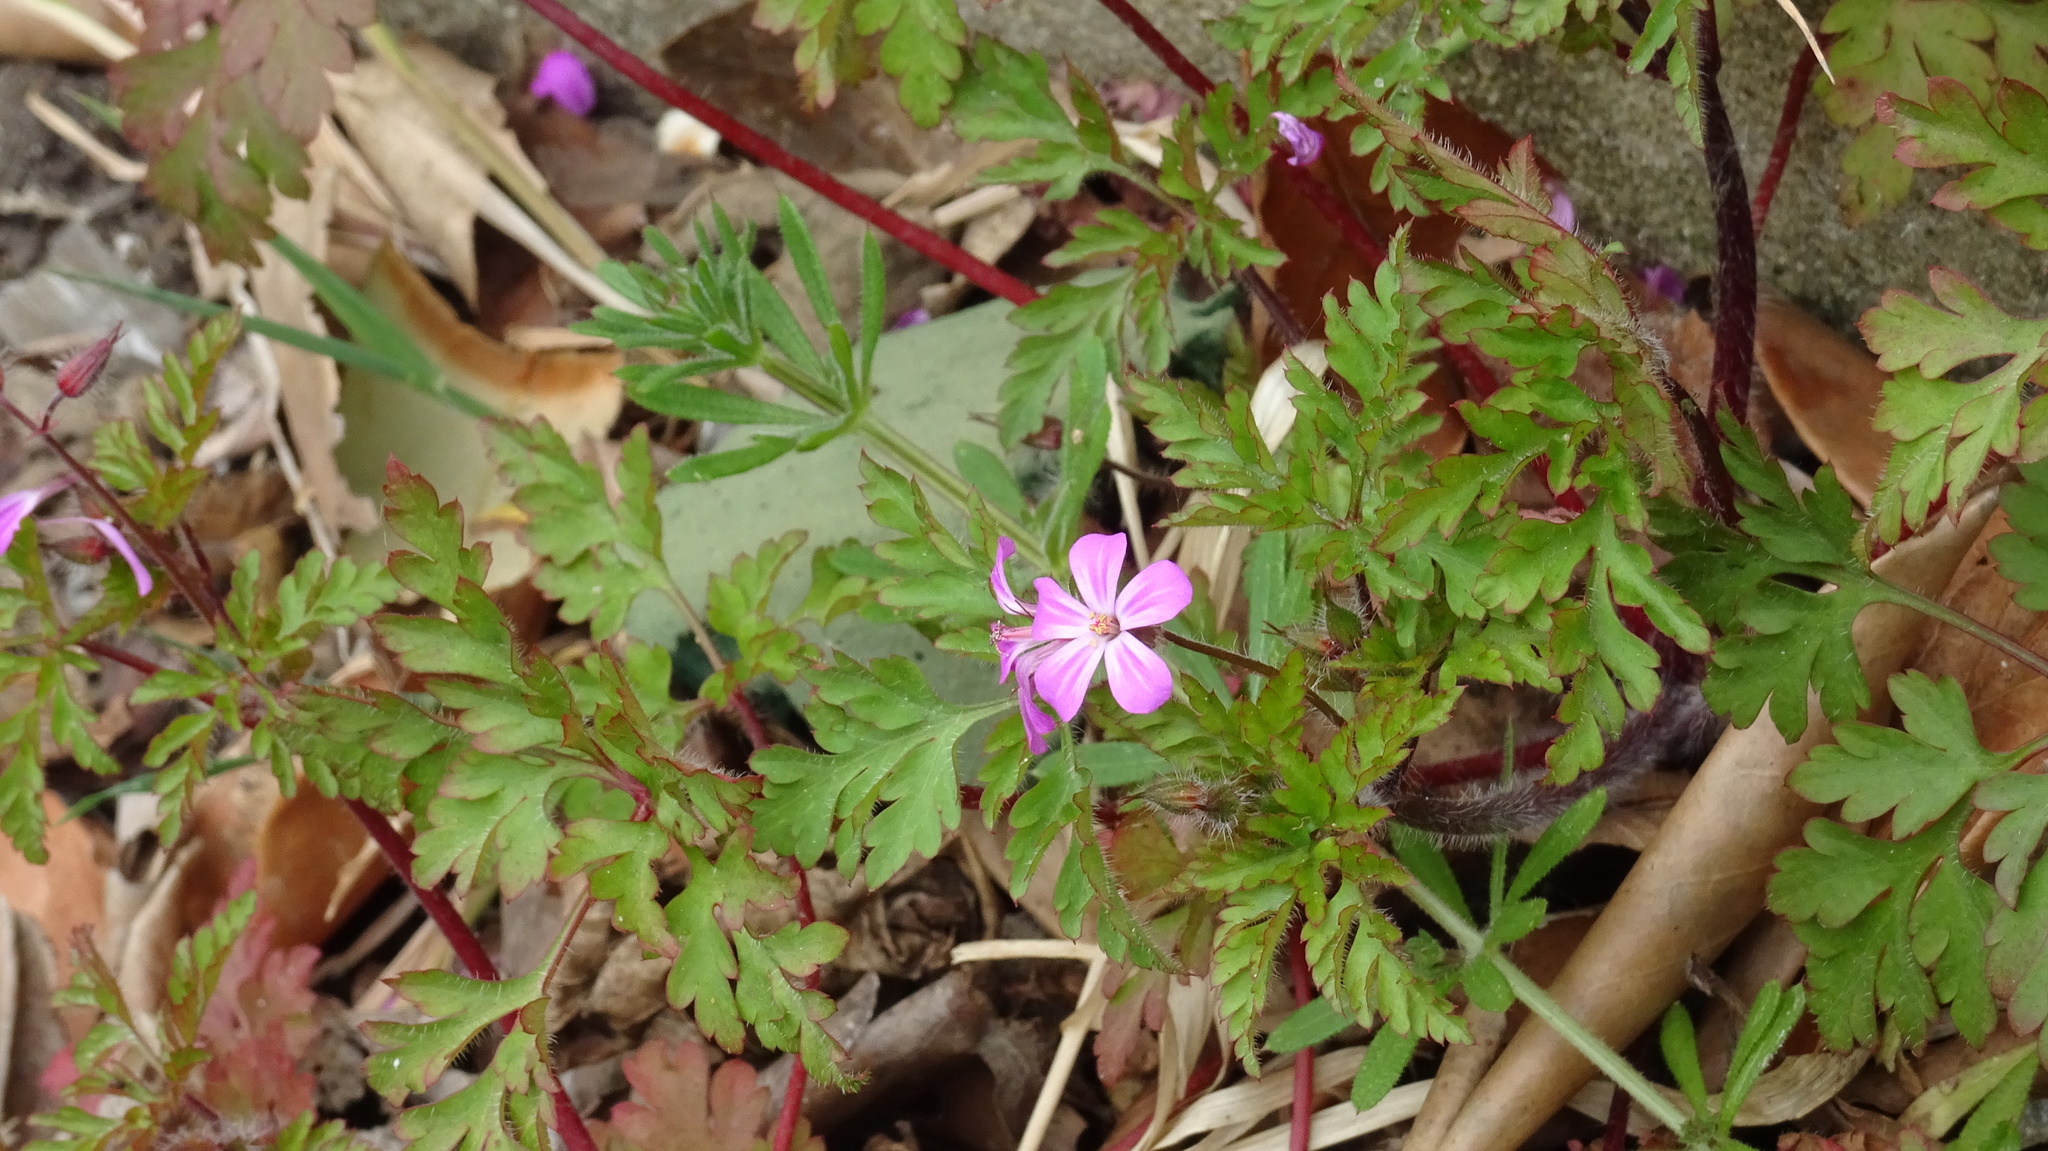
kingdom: Plantae
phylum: Tracheophyta
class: Magnoliopsida
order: Geraniales
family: Geraniaceae
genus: Geranium
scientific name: Geranium robertianum
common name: Herb-robert
